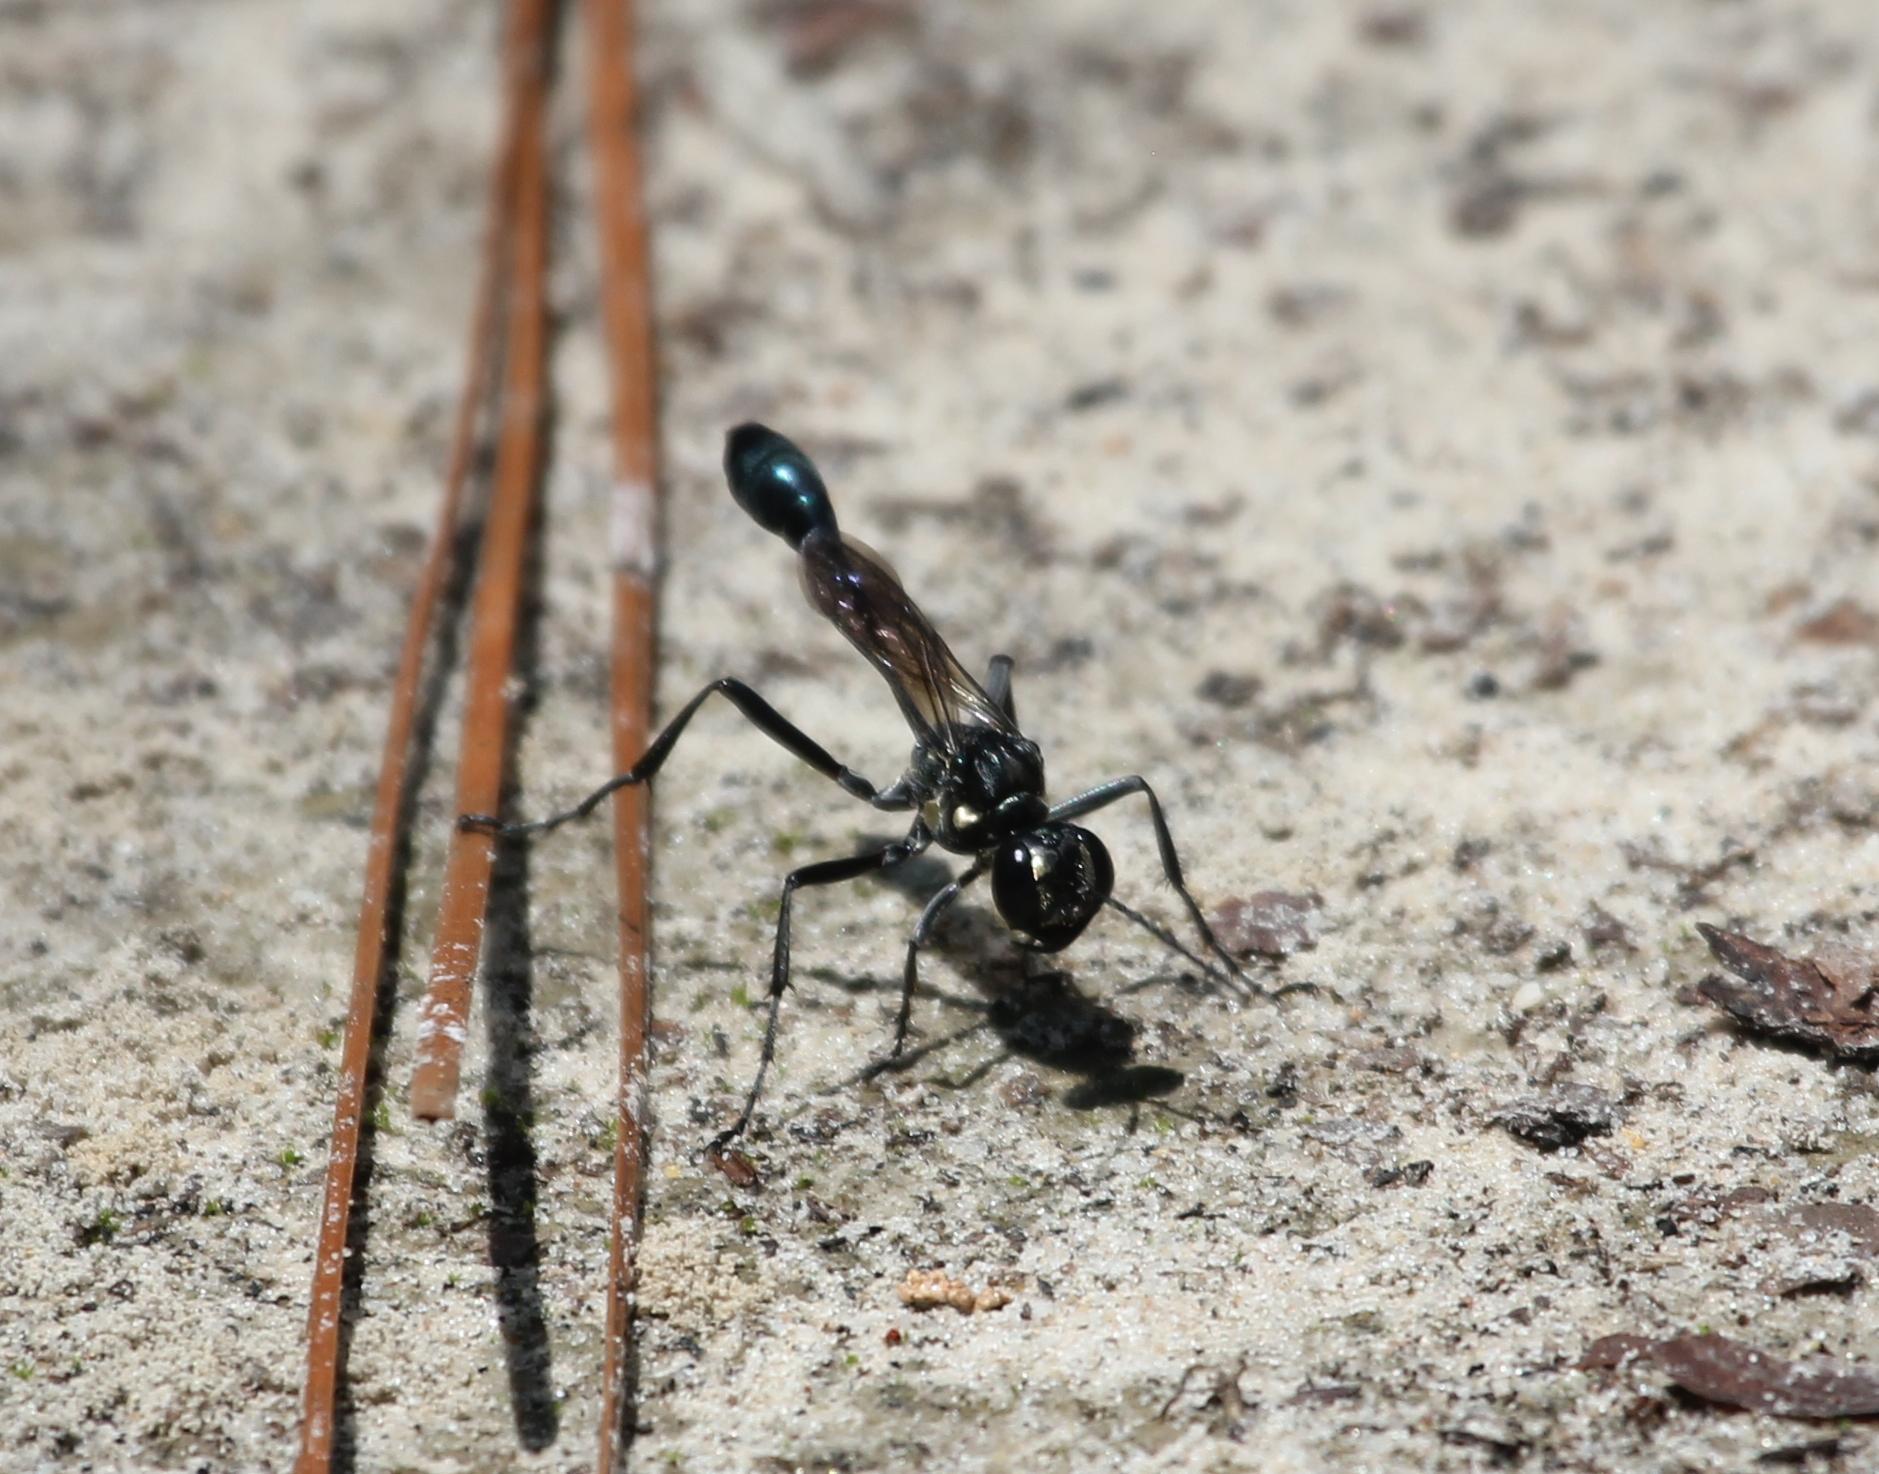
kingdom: Animalia
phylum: Arthropoda
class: Insecta
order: Hymenoptera
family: Sphecidae
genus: Eremnophila
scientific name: Eremnophila aureonotata
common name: Gold-marked thread-waisted wasp
